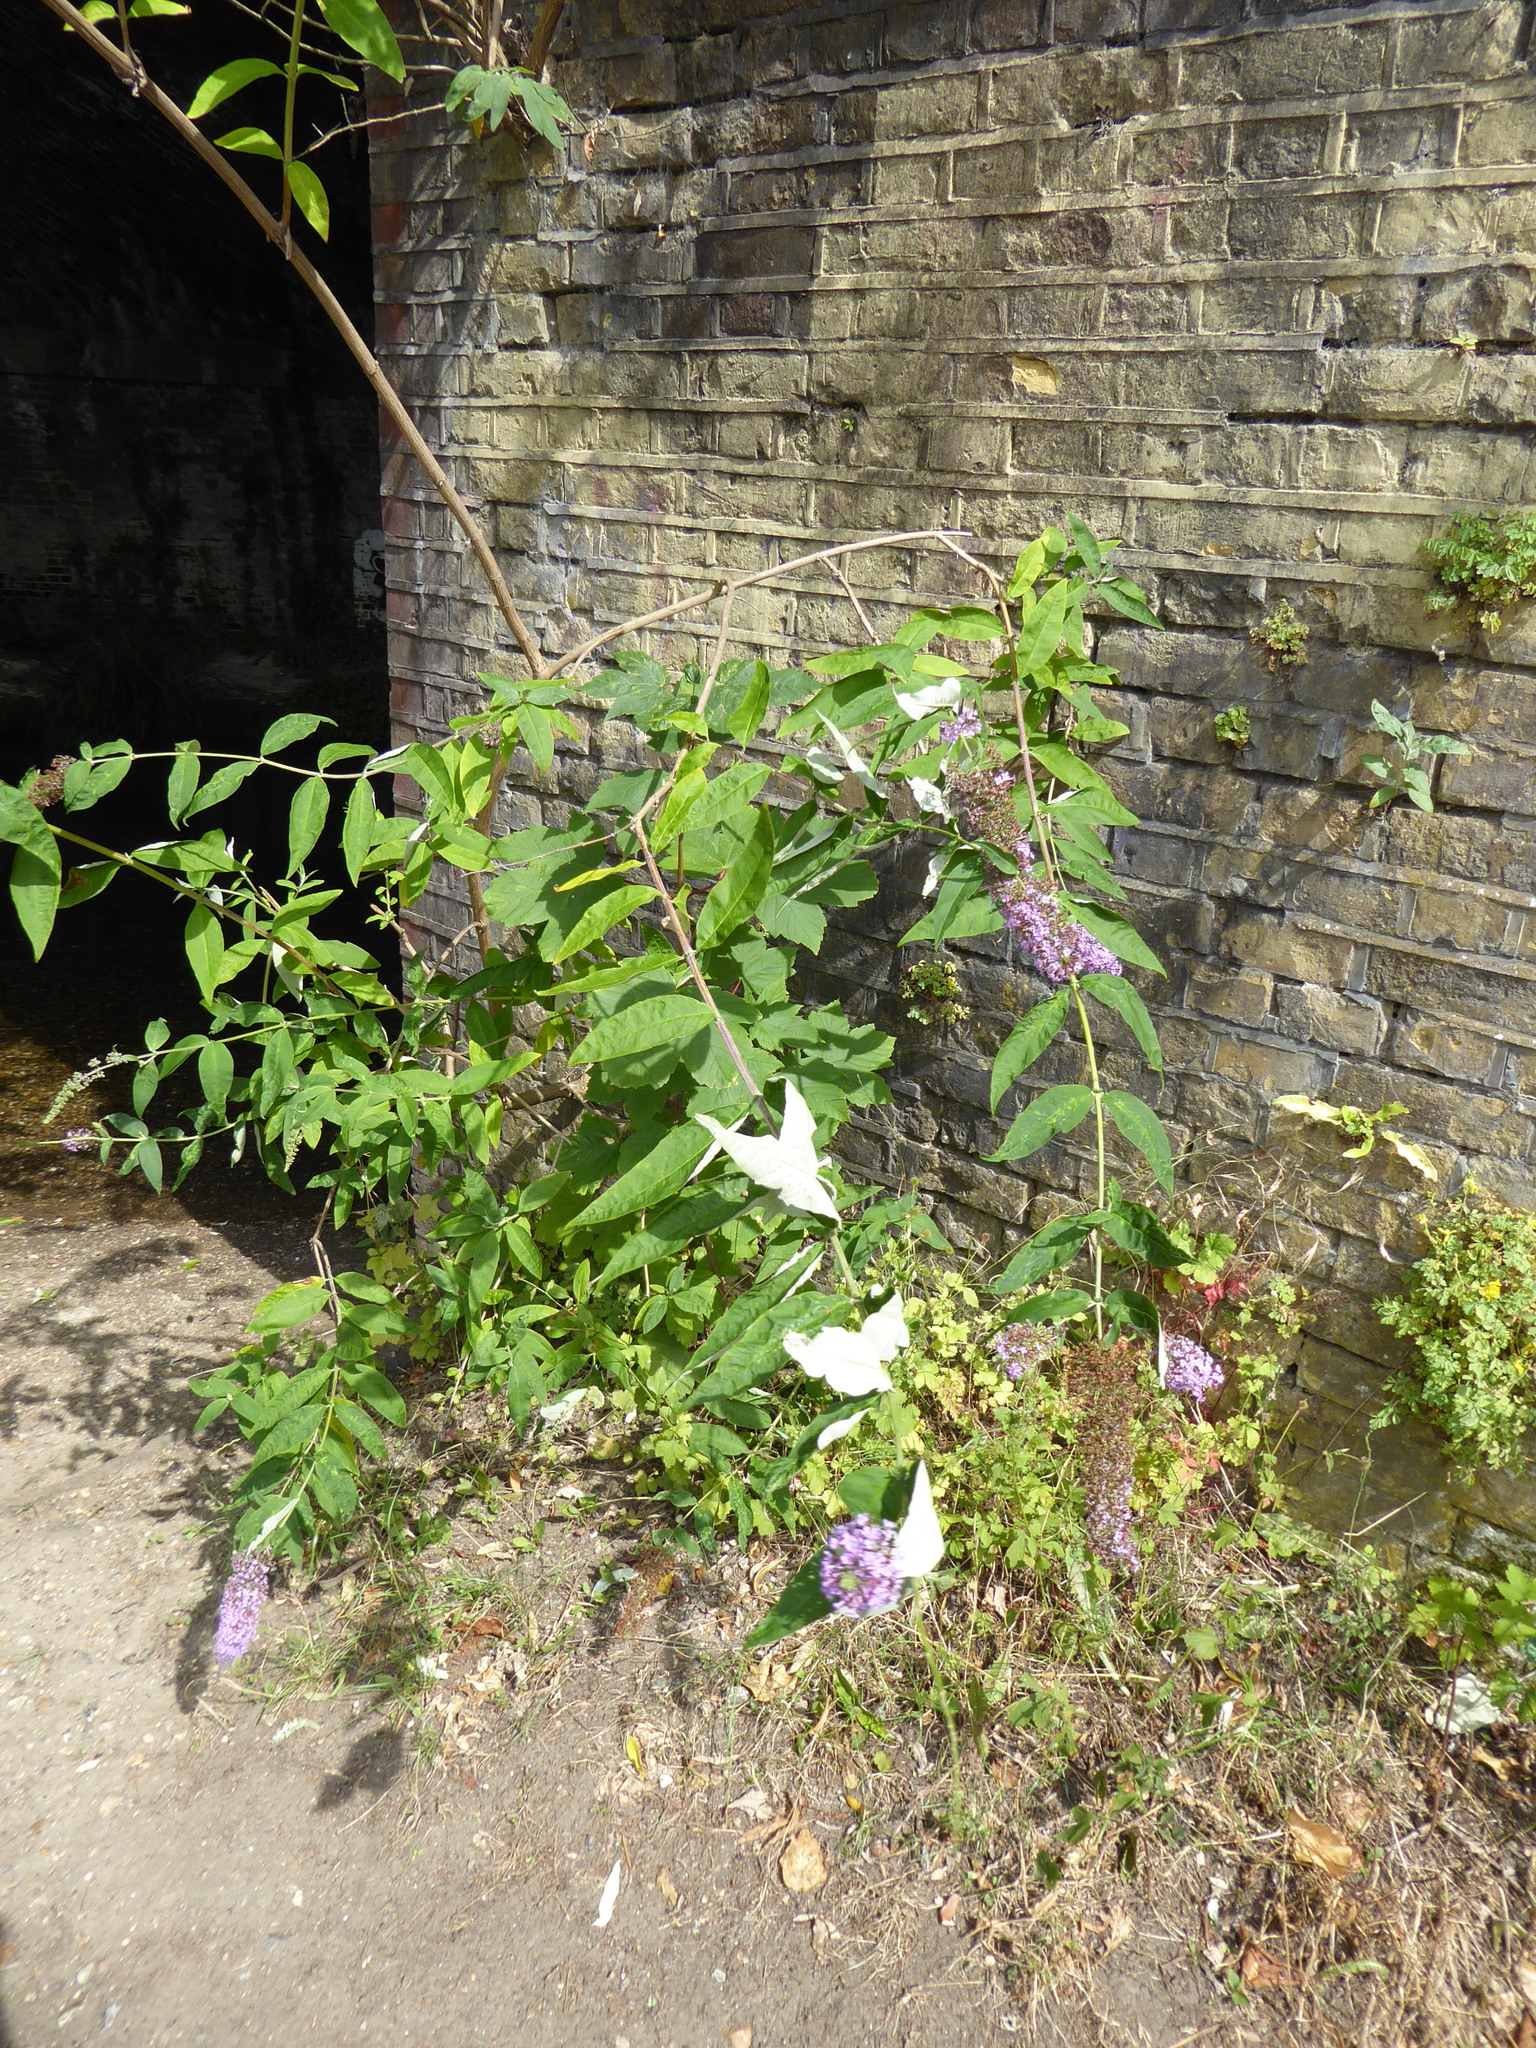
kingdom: Plantae
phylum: Tracheophyta
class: Magnoliopsida
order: Lamiales
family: Scrophulariaceae
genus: Buddleja
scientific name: Buddleja davidii
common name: Butterfly-bush
